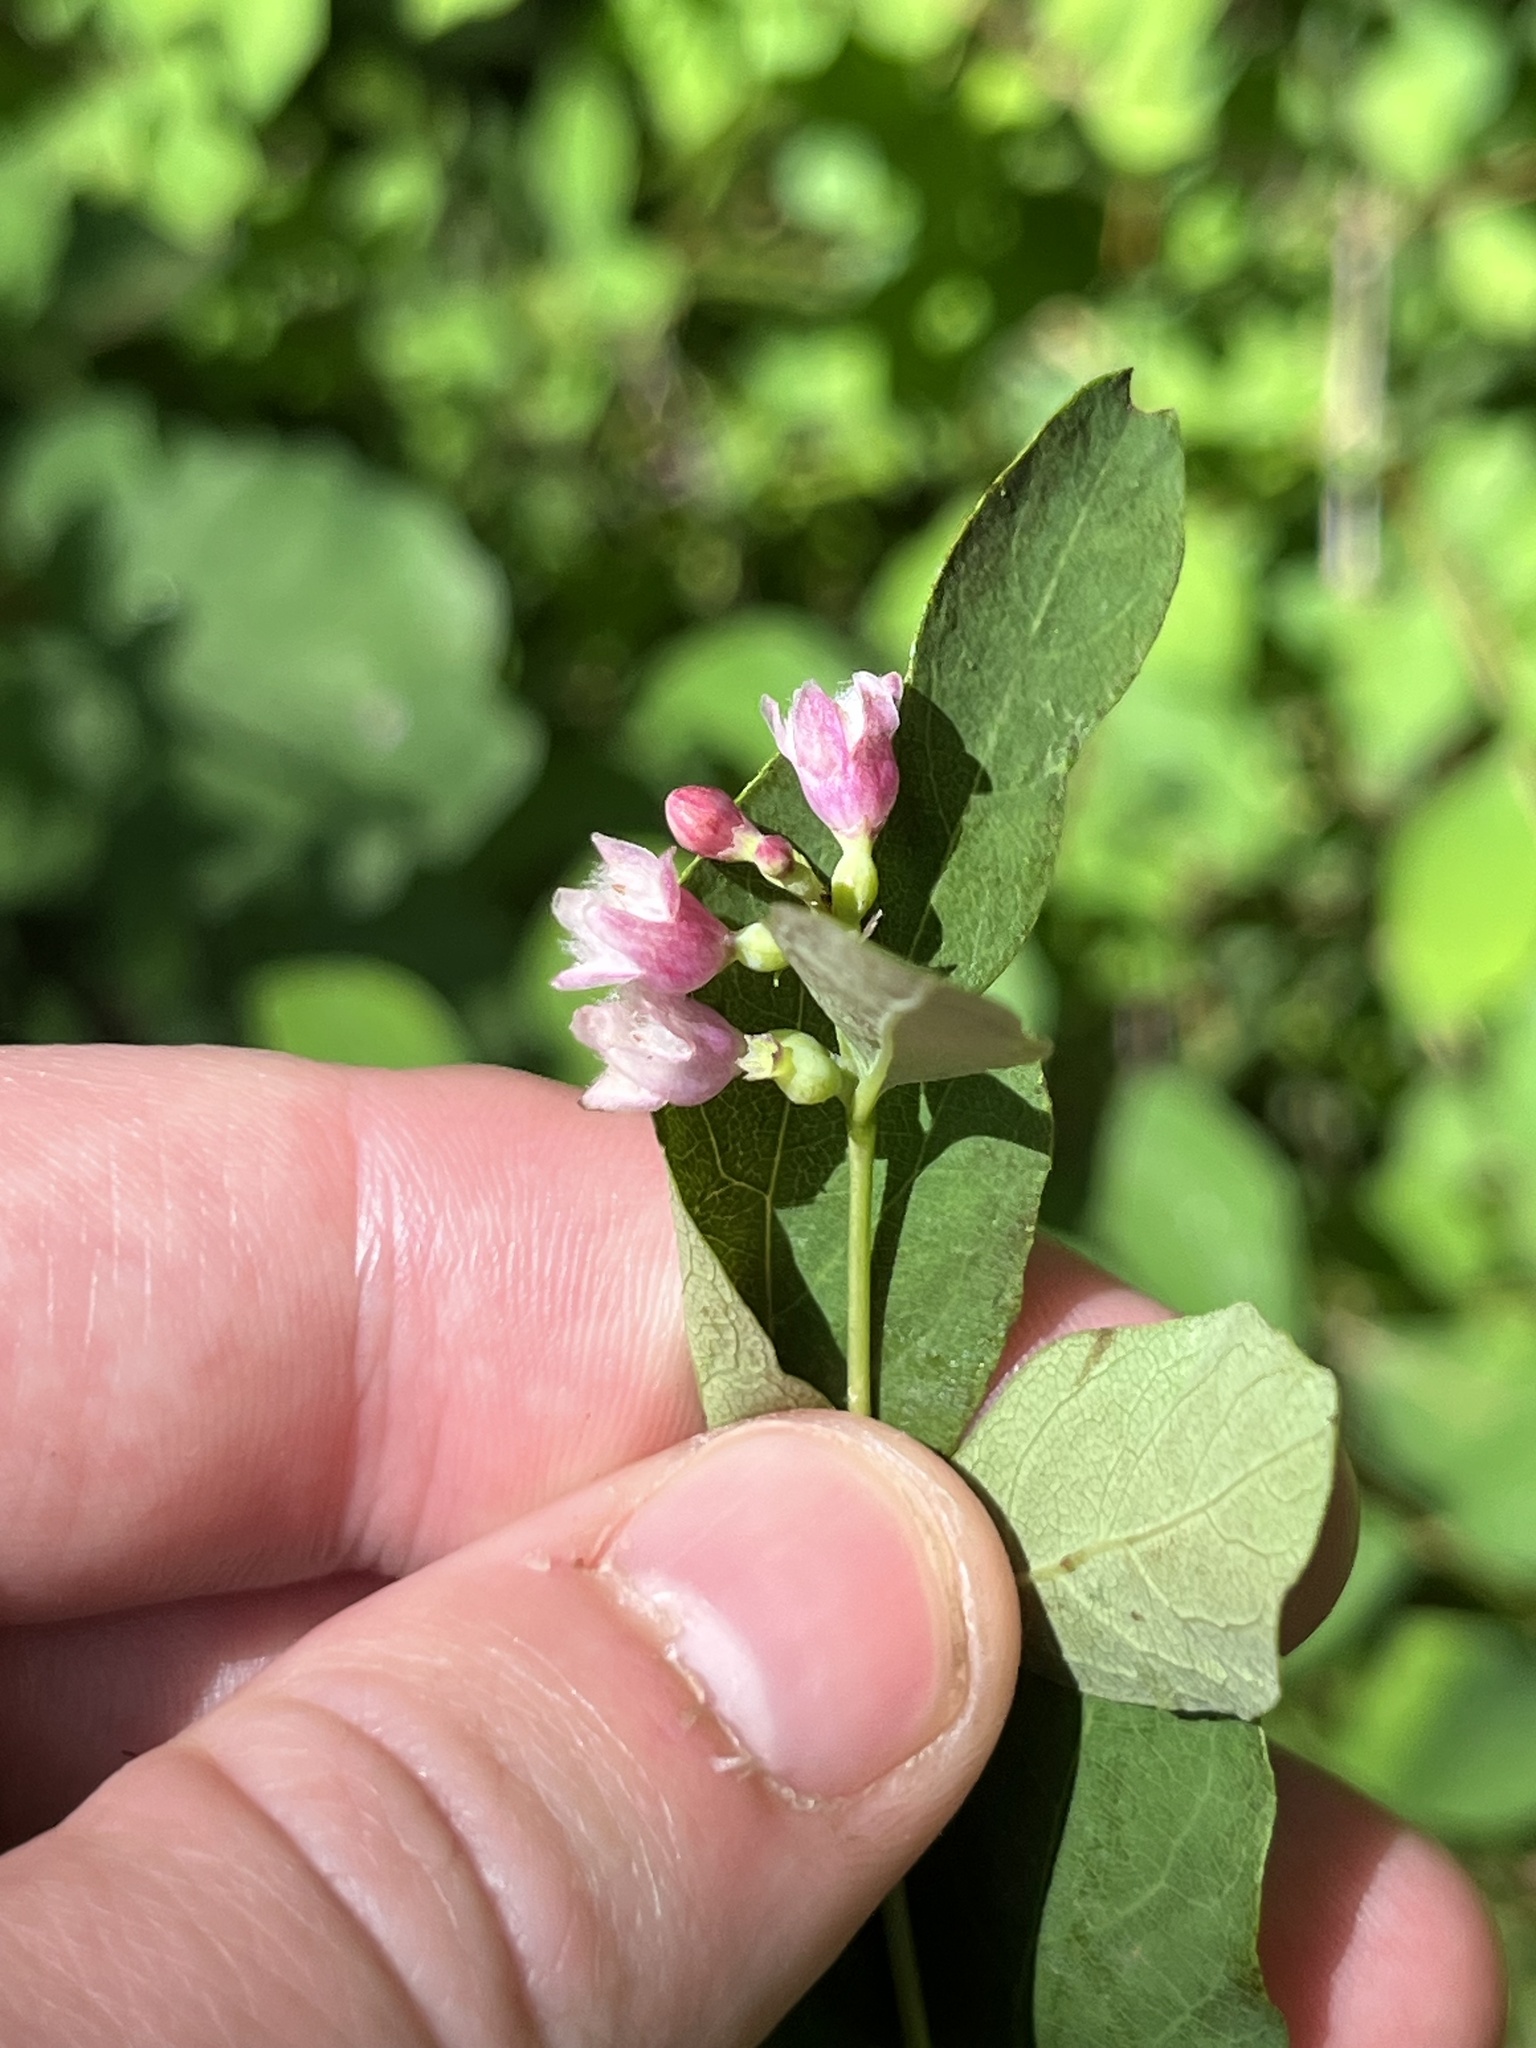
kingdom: Plantae
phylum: Tracheophyta
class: Magnoliopsida
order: Dipsacales
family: Caprifoliaceae
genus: Symphoricarpos
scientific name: Symphoricarpos albus
